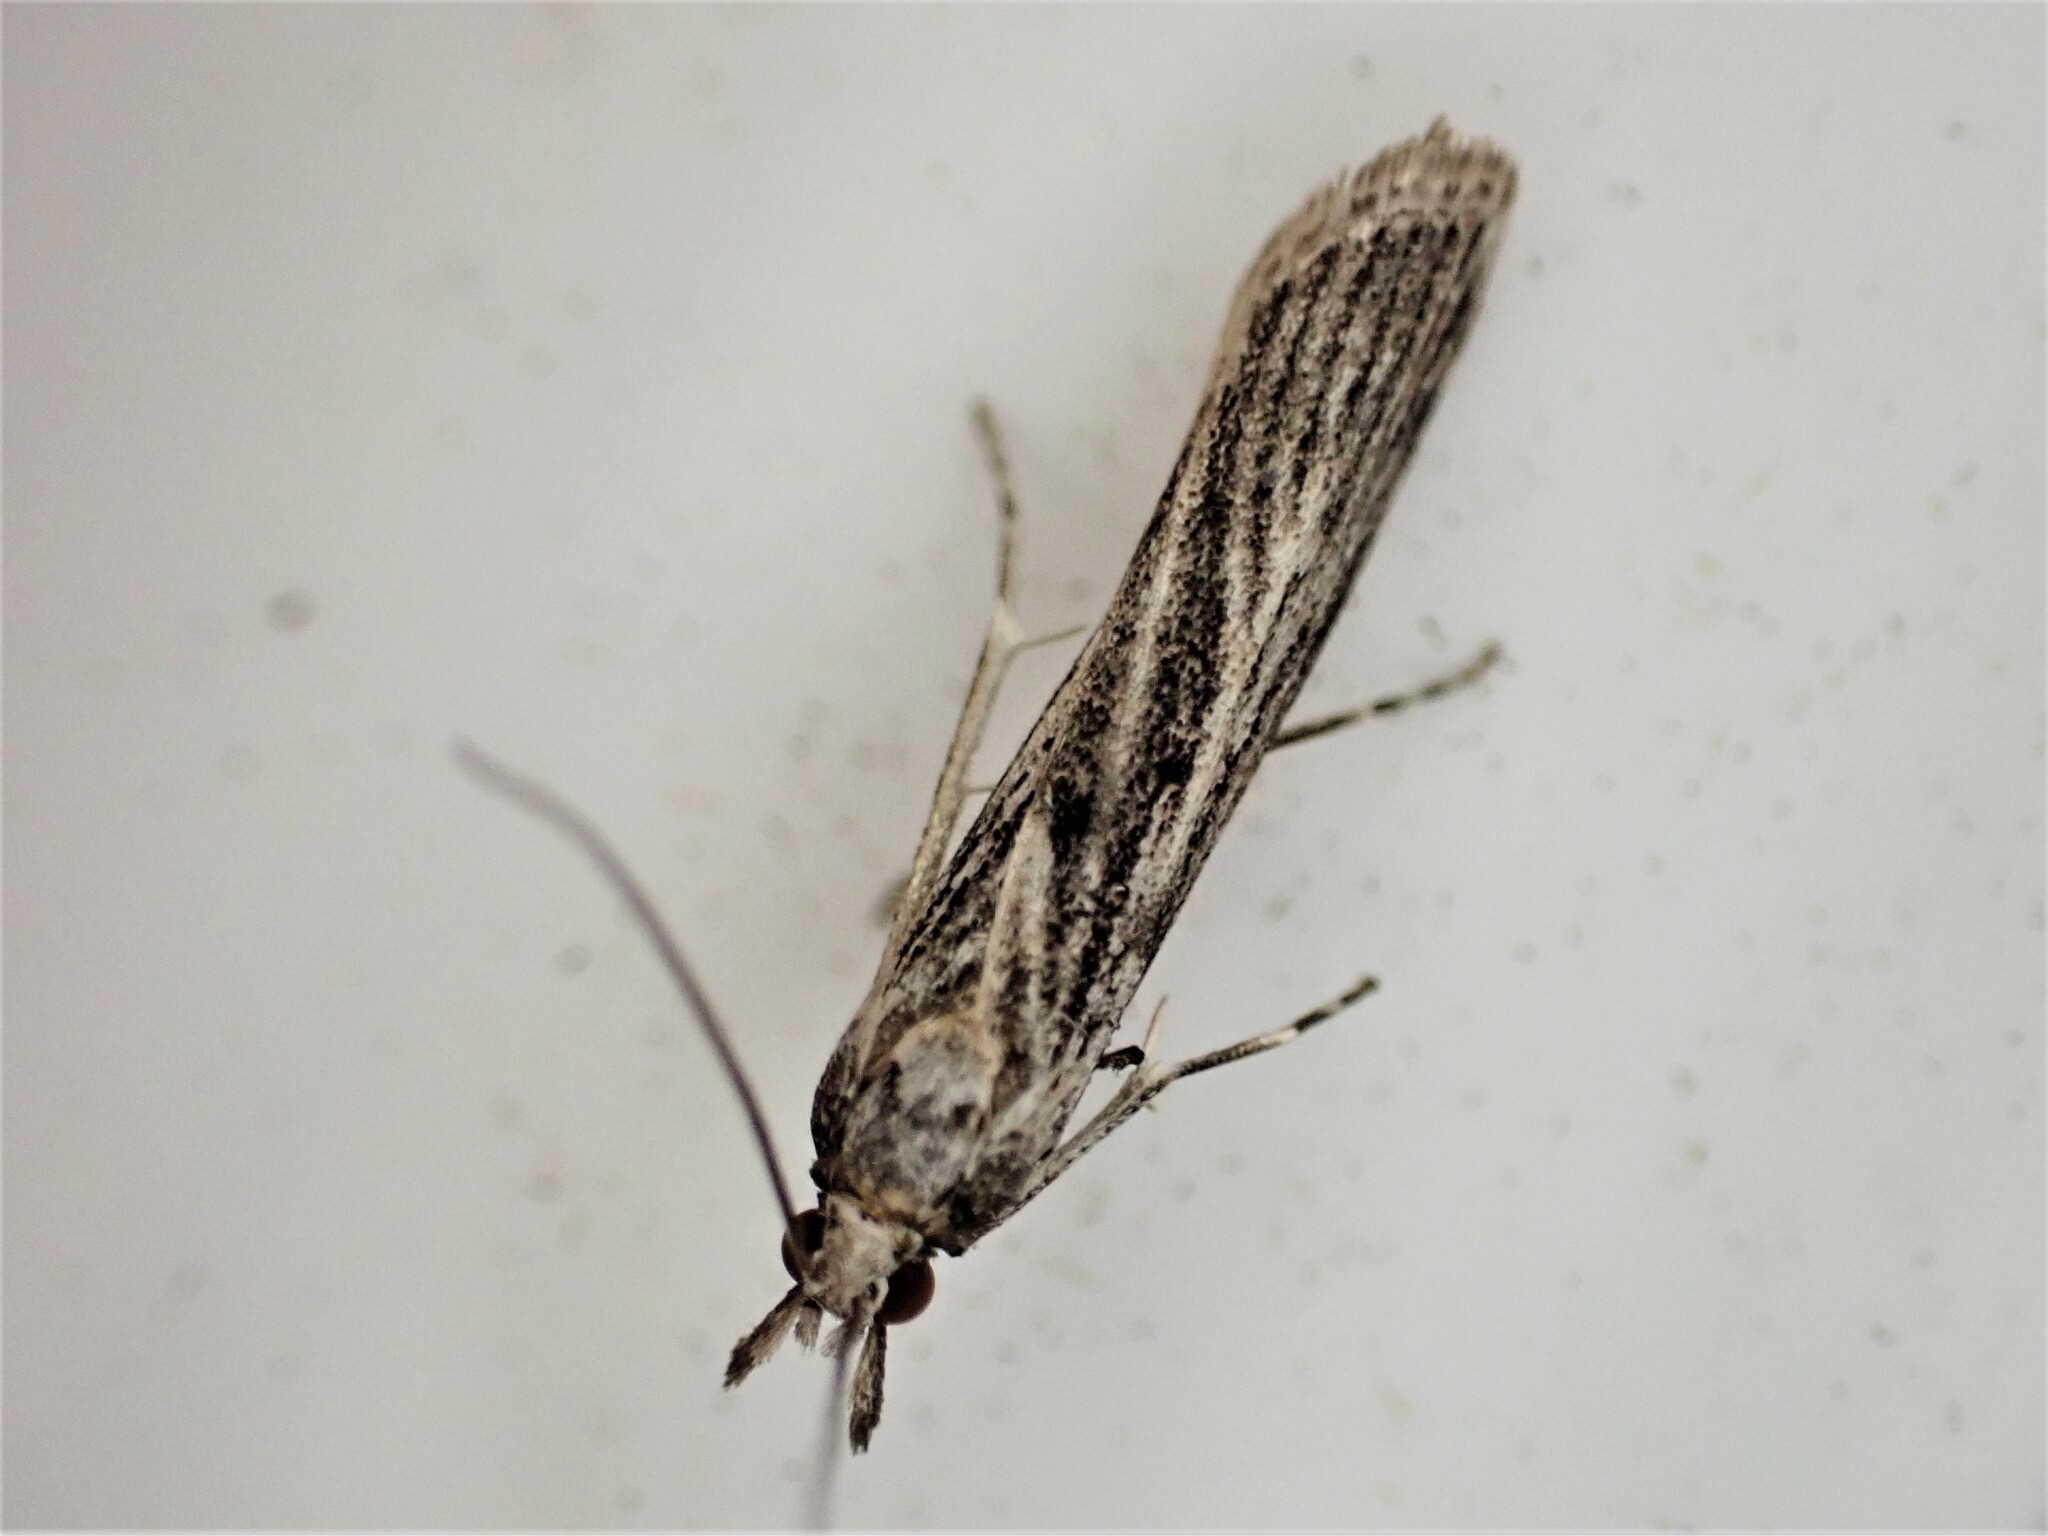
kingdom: Animalia
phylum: Arthropoda
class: Insecta
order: Lepidoptera
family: Crambidae
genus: Eudonia
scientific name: Eudonia atmogramma
